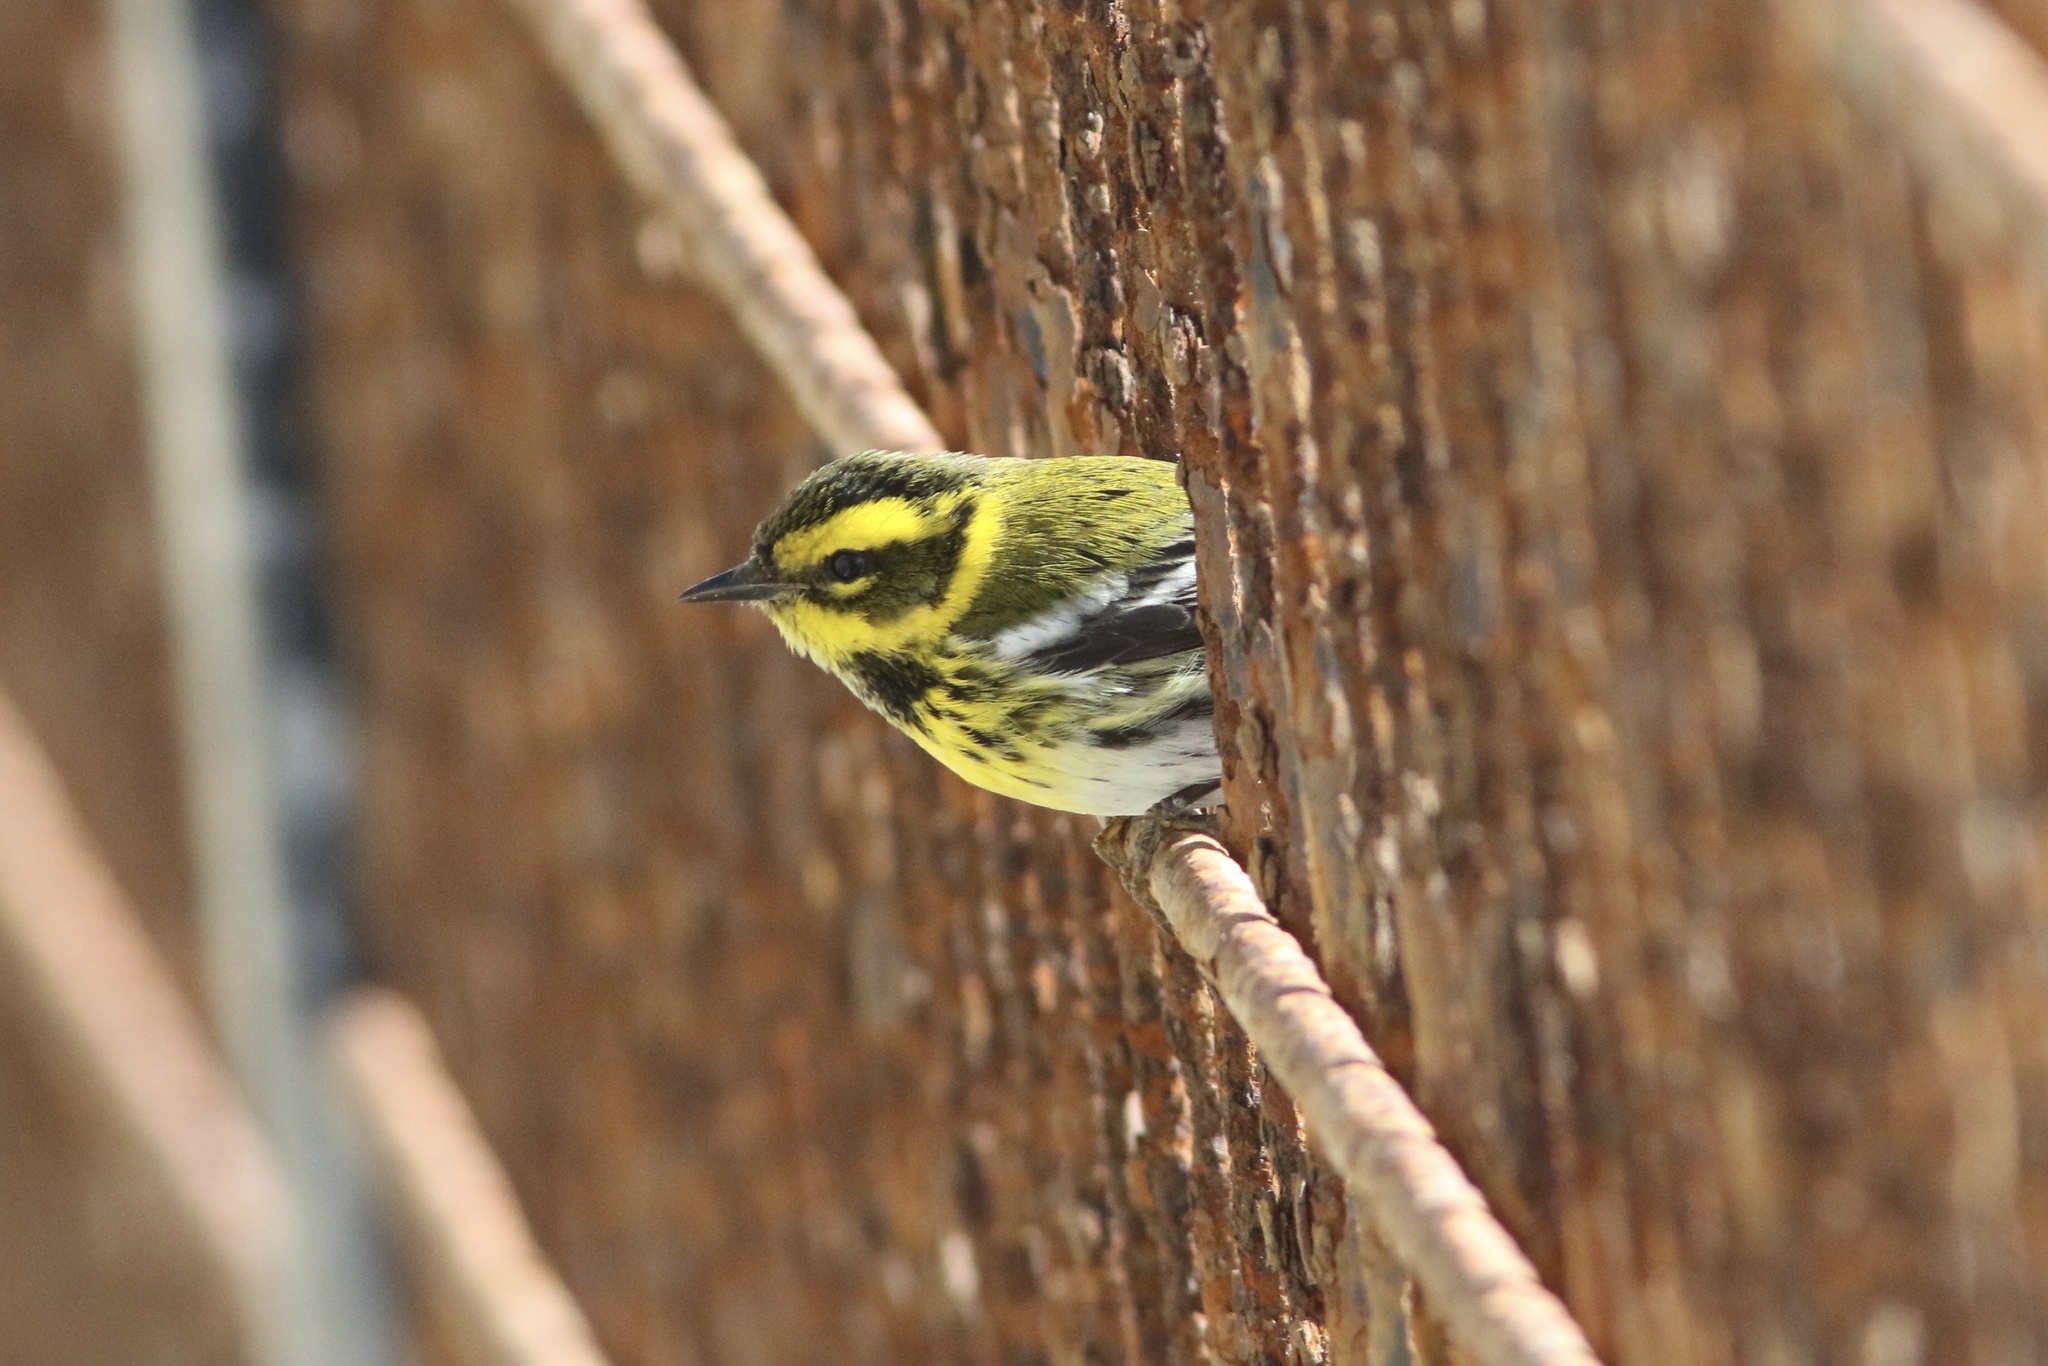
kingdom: Animalia
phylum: Chordata
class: Aves
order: Passeriformes
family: Parulidae
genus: Setophaga
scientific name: Setophaga townsendi
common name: Townsend's warbler
